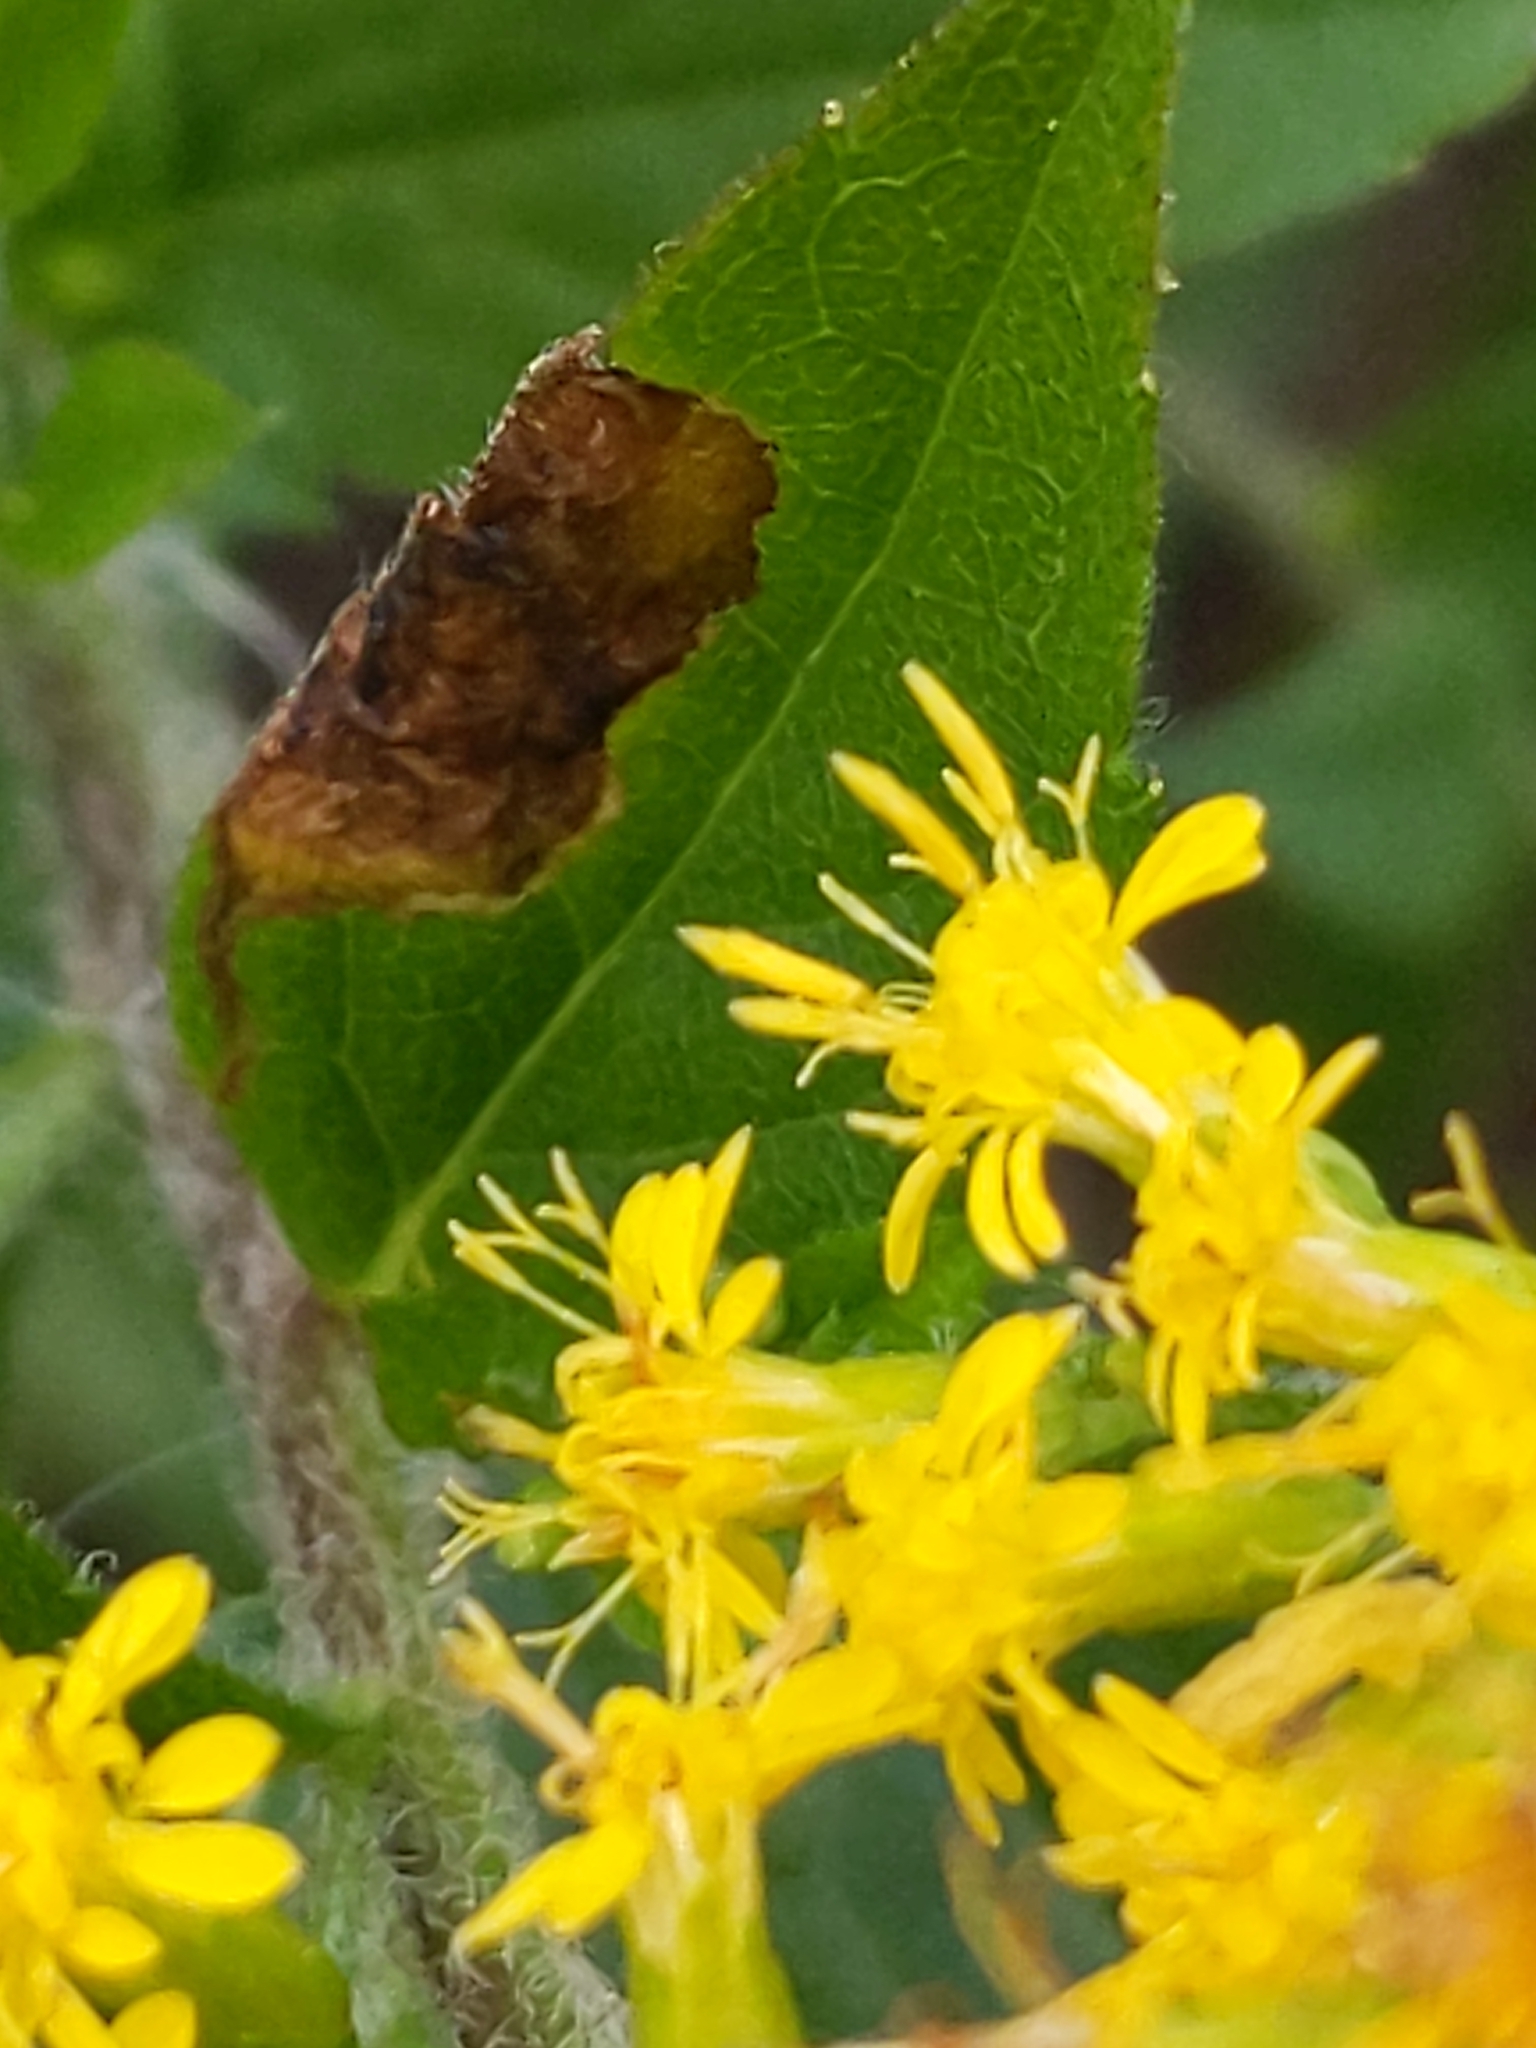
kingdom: Animalia
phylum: Arthropoda
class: Insecta
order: Diptera
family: Agromyzidae
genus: Nemorimyza
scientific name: Nemorimyza posticata
